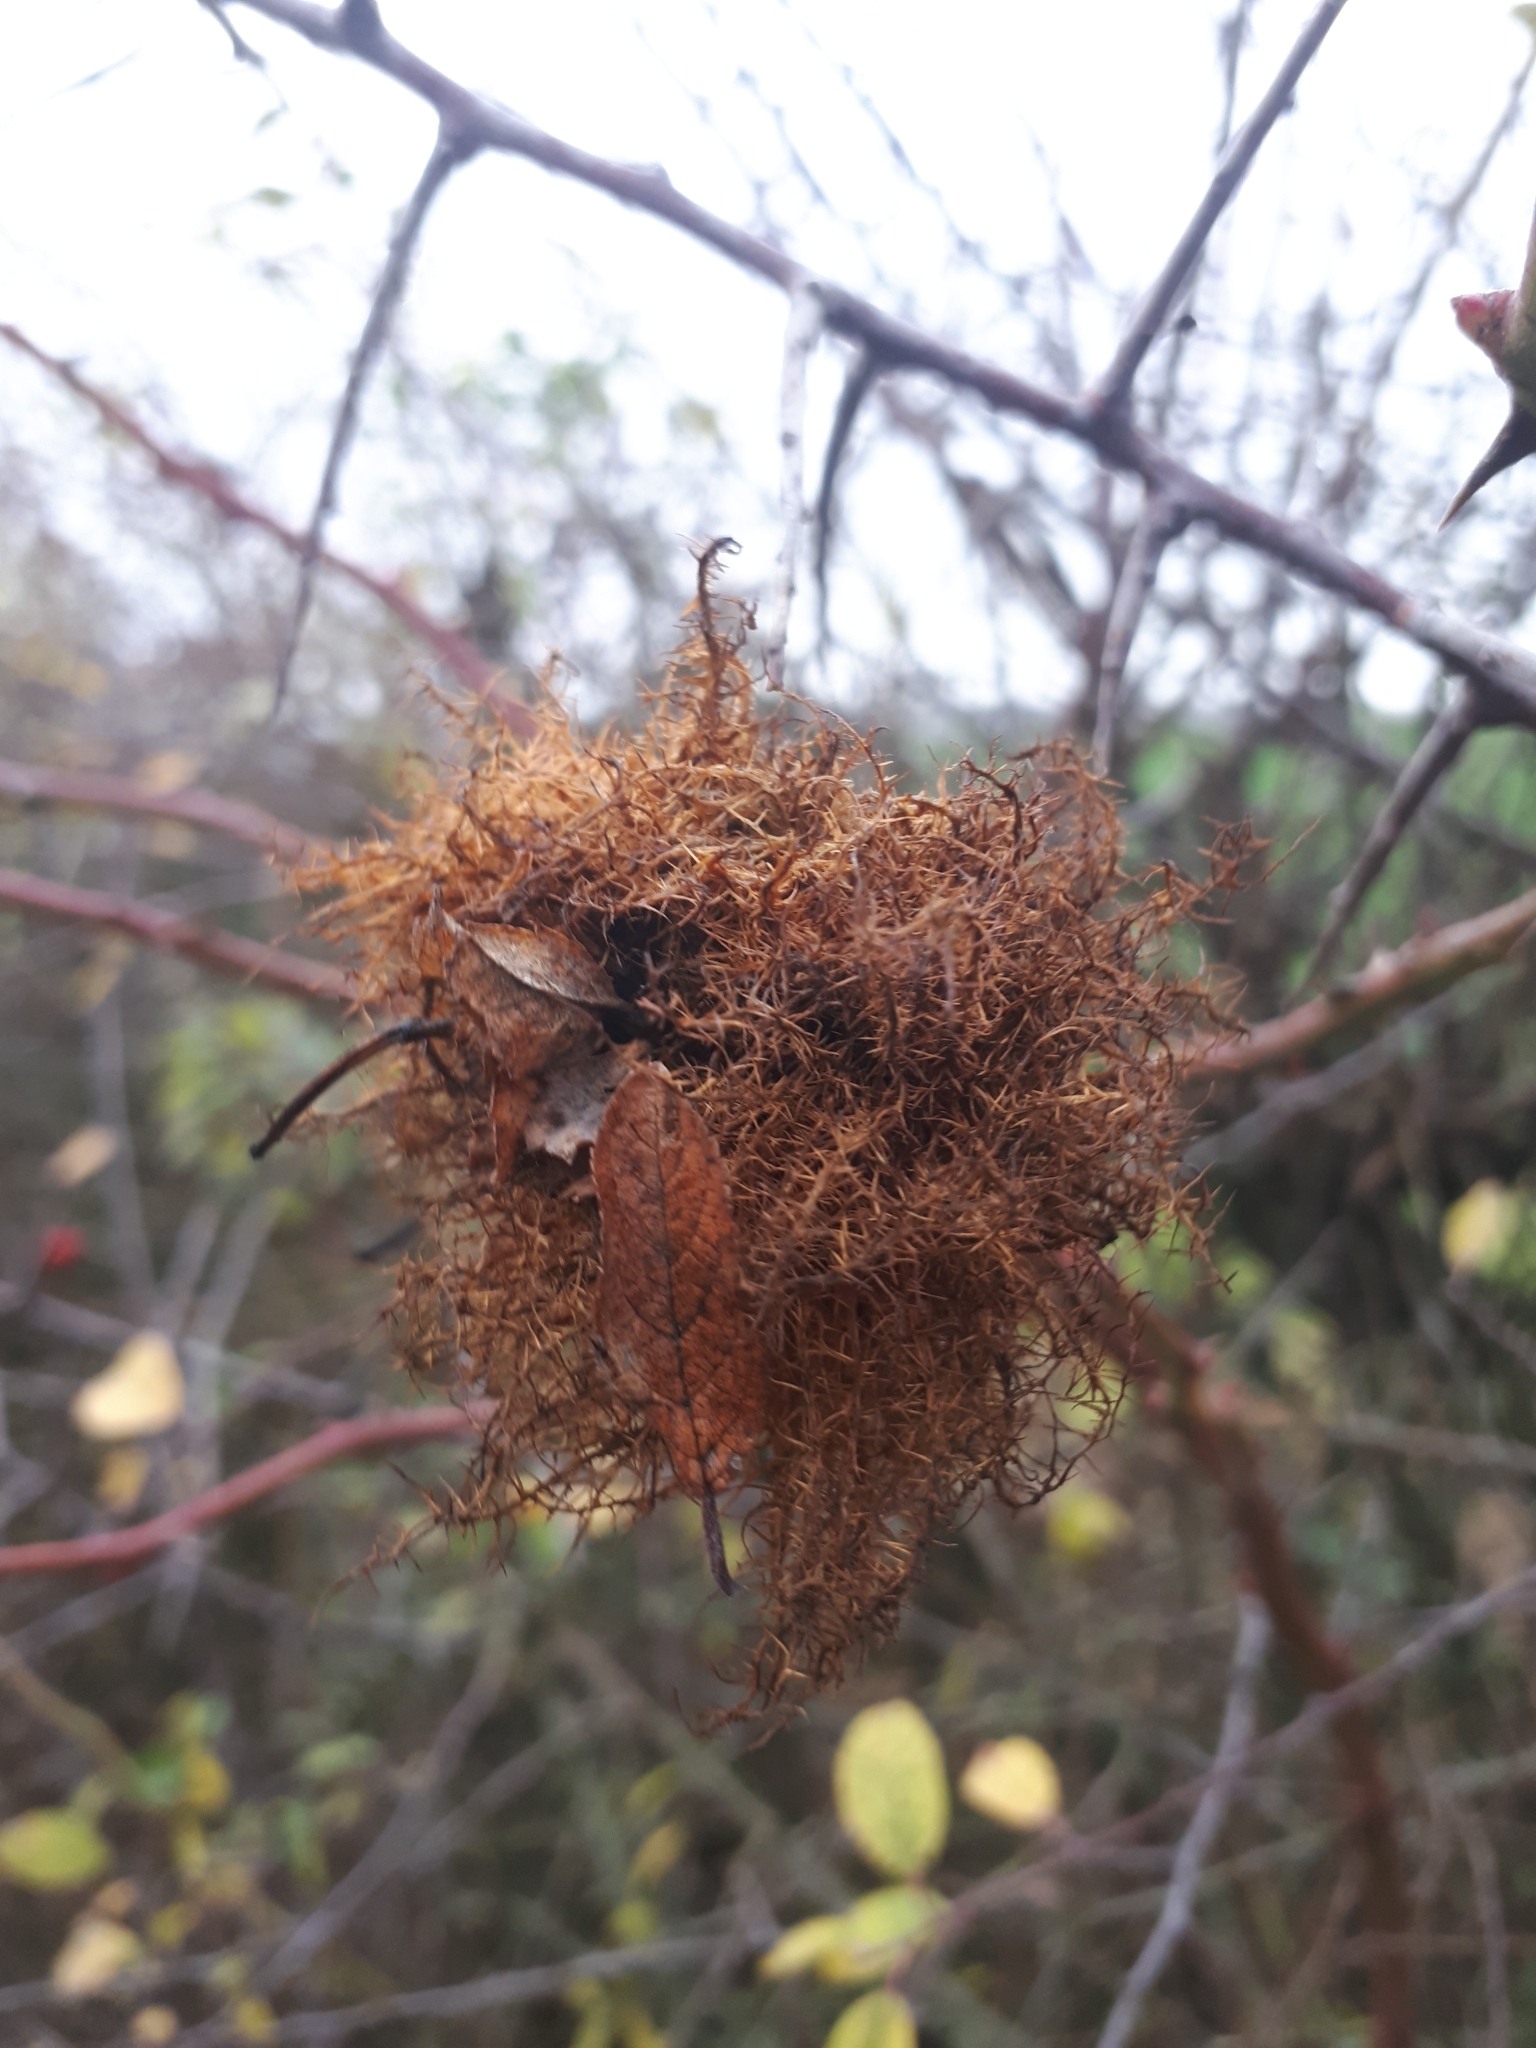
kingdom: Animalia
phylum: Arthropoda
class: Insecta
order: Hymenoptera
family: Cynipidae
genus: Diplolepis
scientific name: Diplolepis rosae
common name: Bedeguar gall
